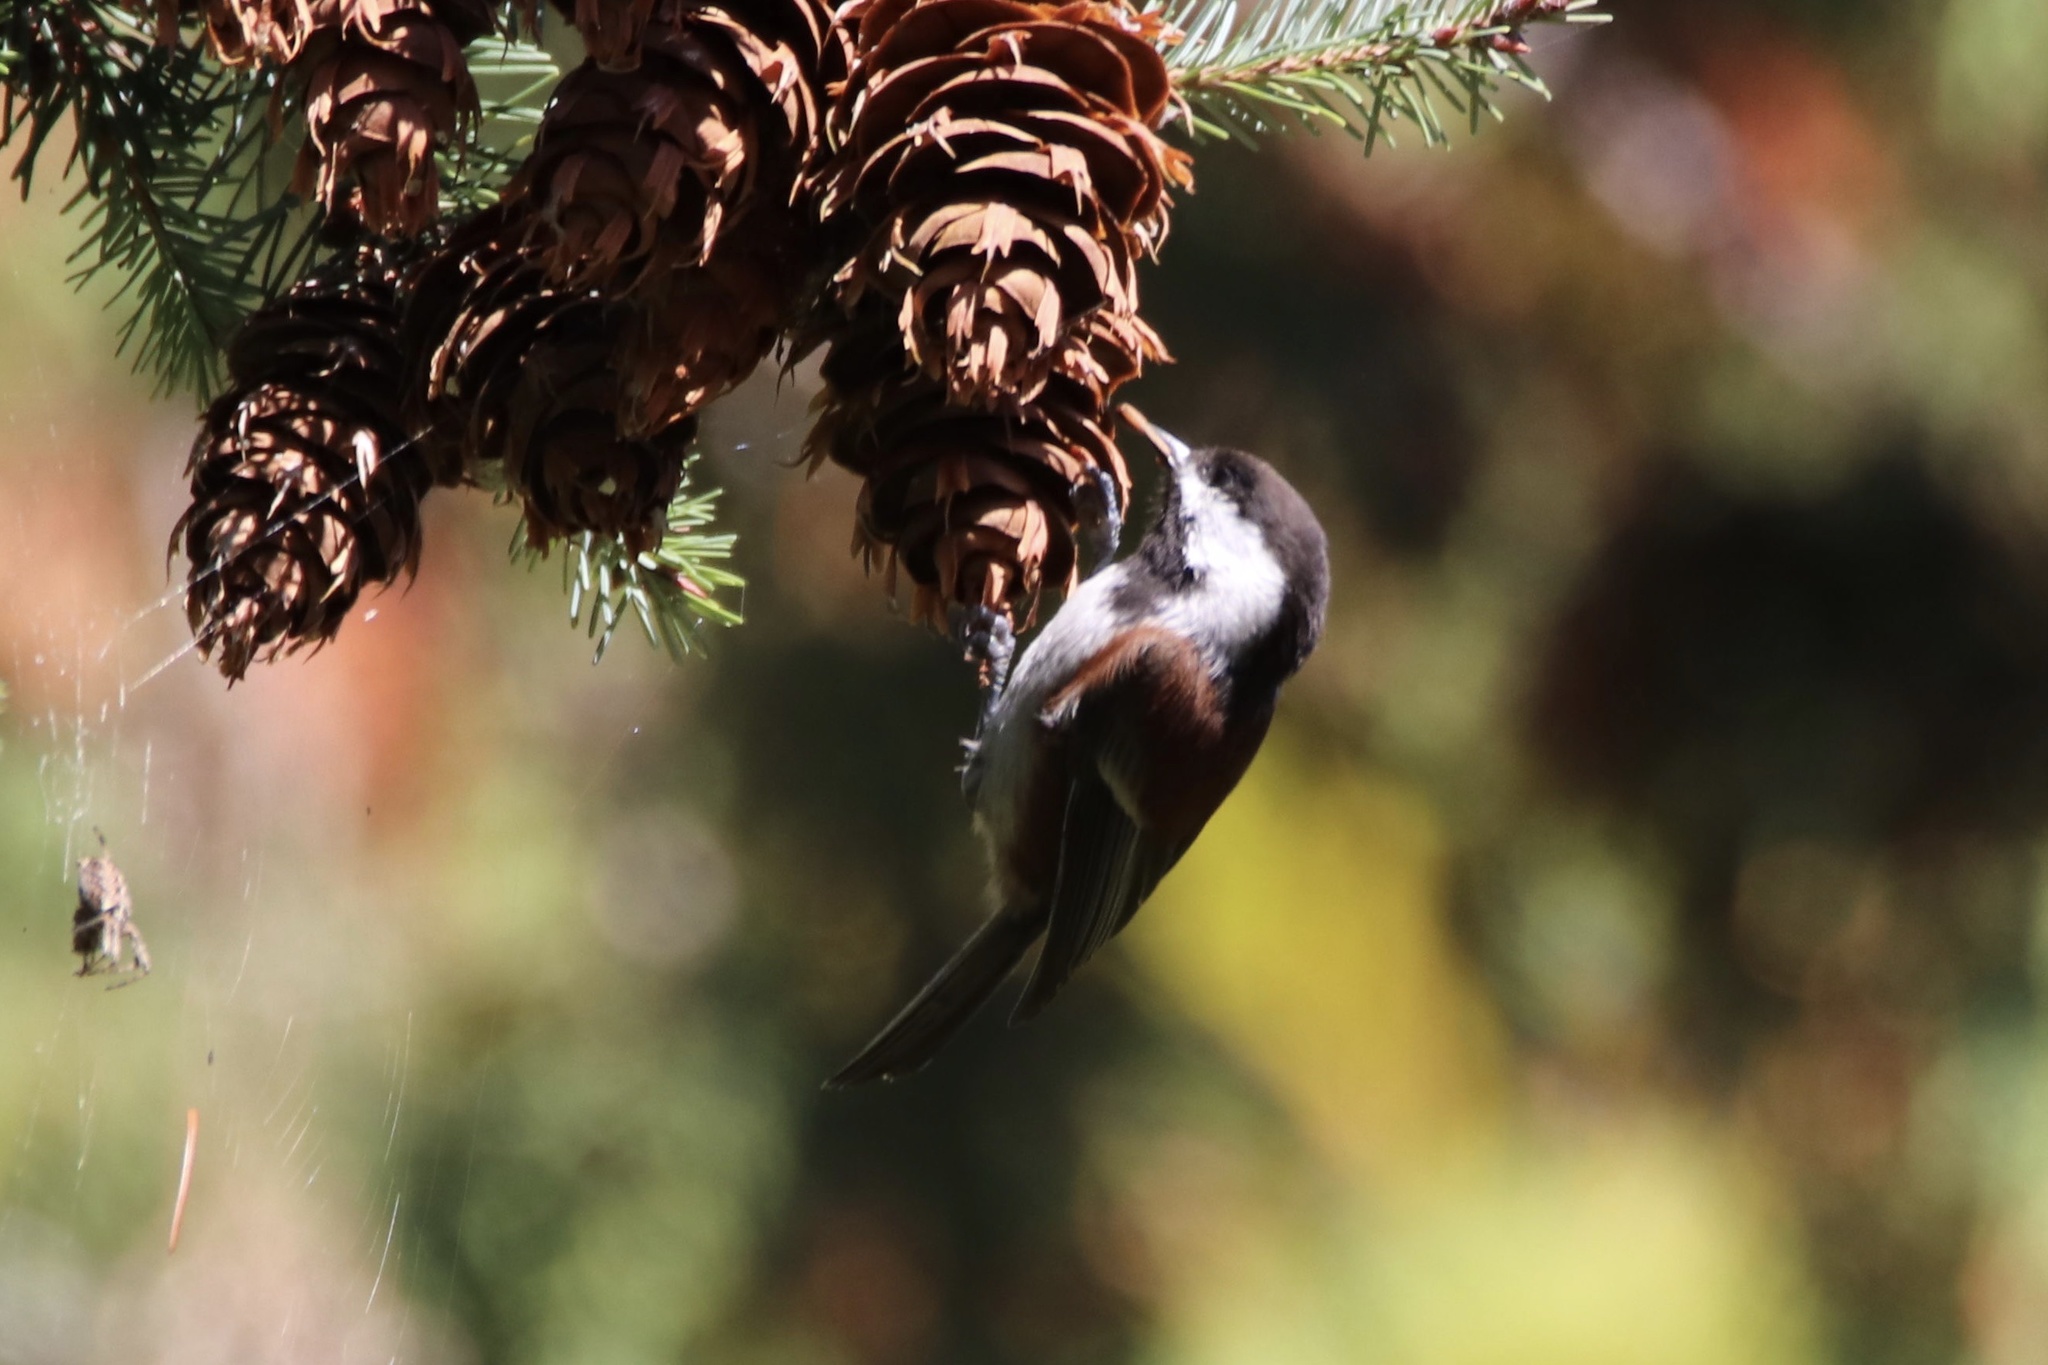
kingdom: Animalia
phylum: Chordata
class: Aves
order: Passeriformes
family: Paridae
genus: Poecile
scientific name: Poecile rufescens
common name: Chestnut-backed chickadee
